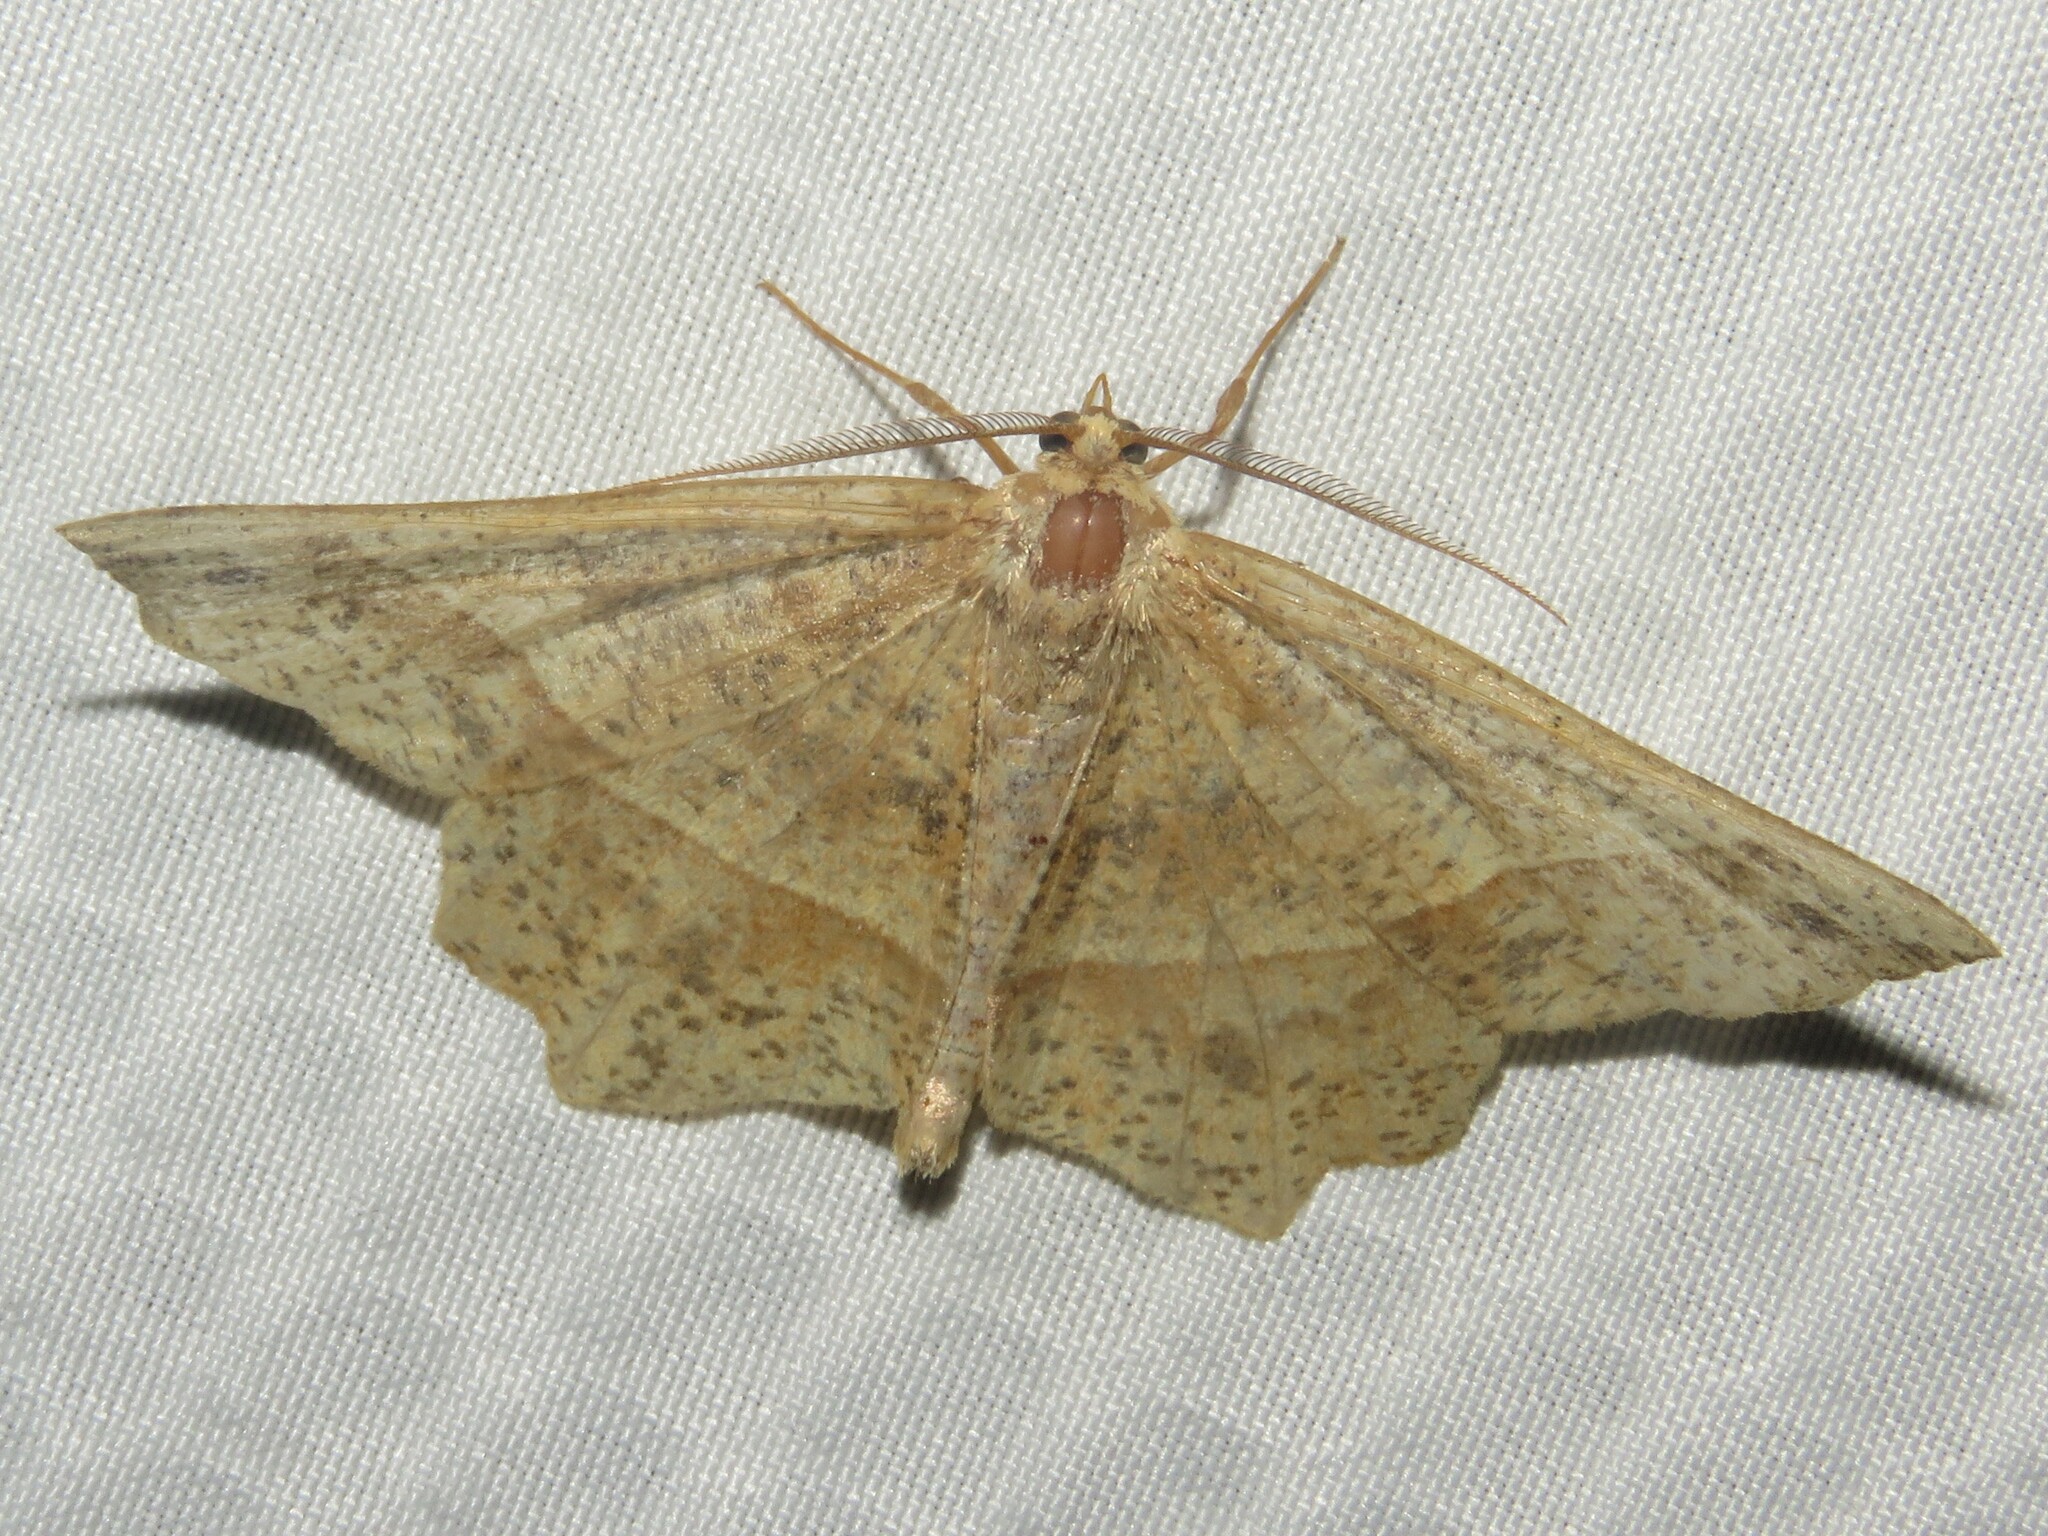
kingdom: Animalia
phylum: Arthropoda
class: Insecta
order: Lepidoptera
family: Geometridae
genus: Euchlaena
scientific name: Euchlaena tigrinaria
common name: Mottled euchlaena moth
